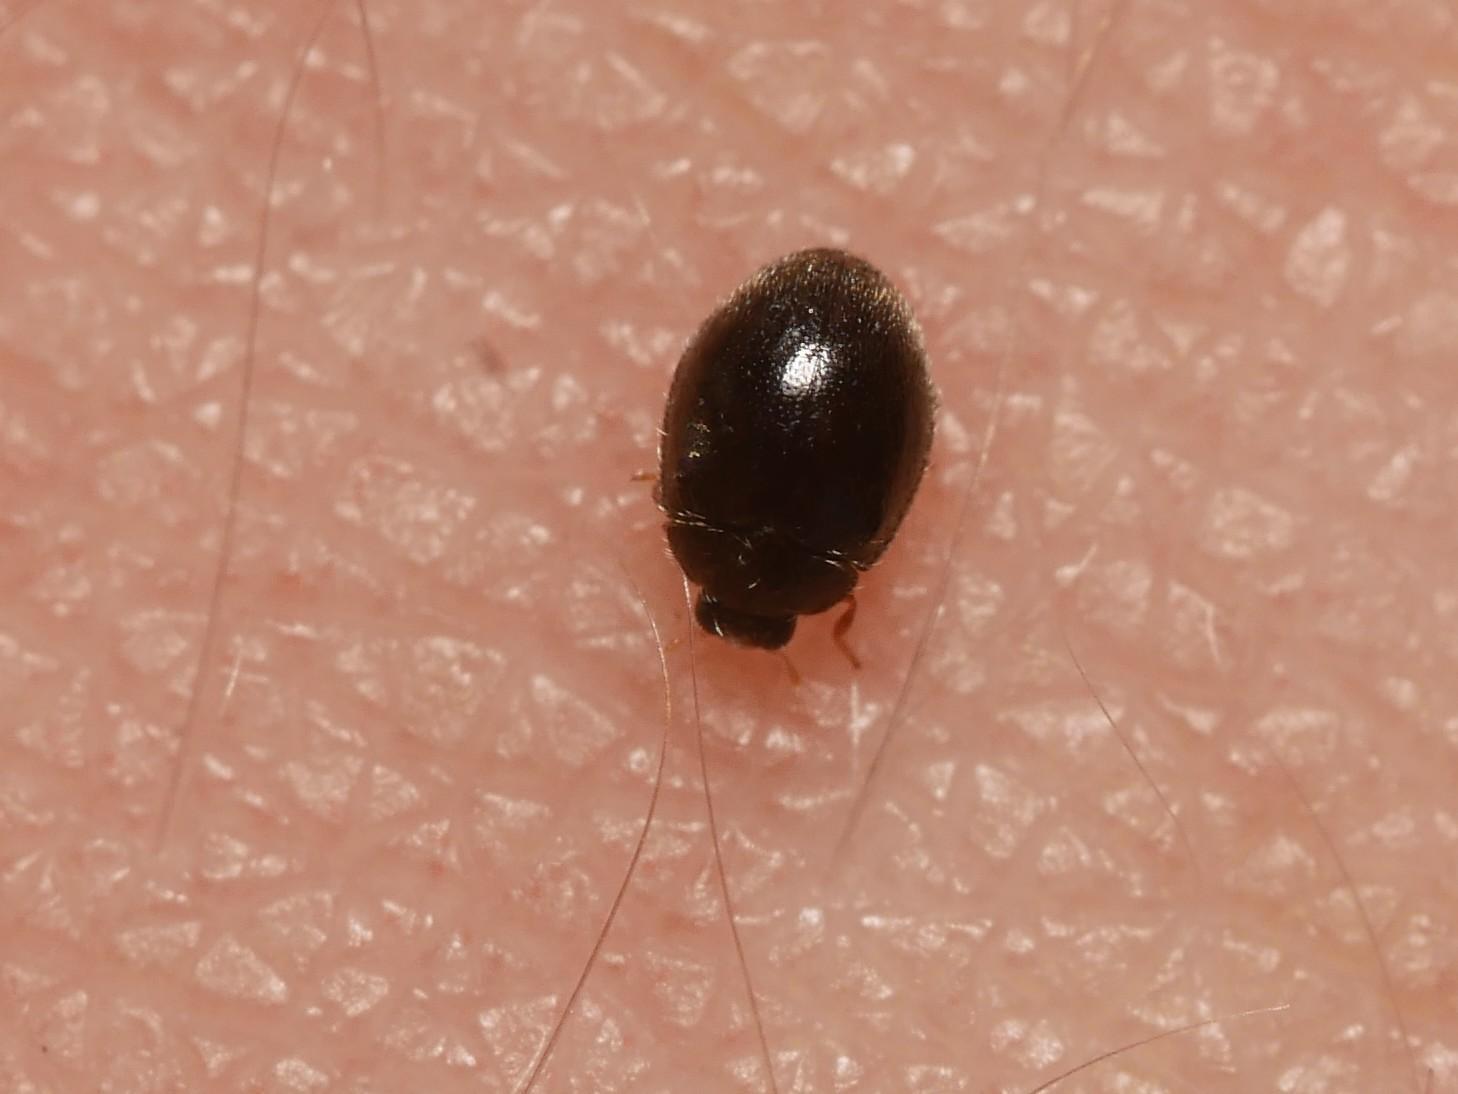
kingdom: Animalia
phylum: Arthropoda
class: Insecta
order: Coleoptera
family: Coccinellidae
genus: Stethorus
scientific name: Stethorus pusillus
